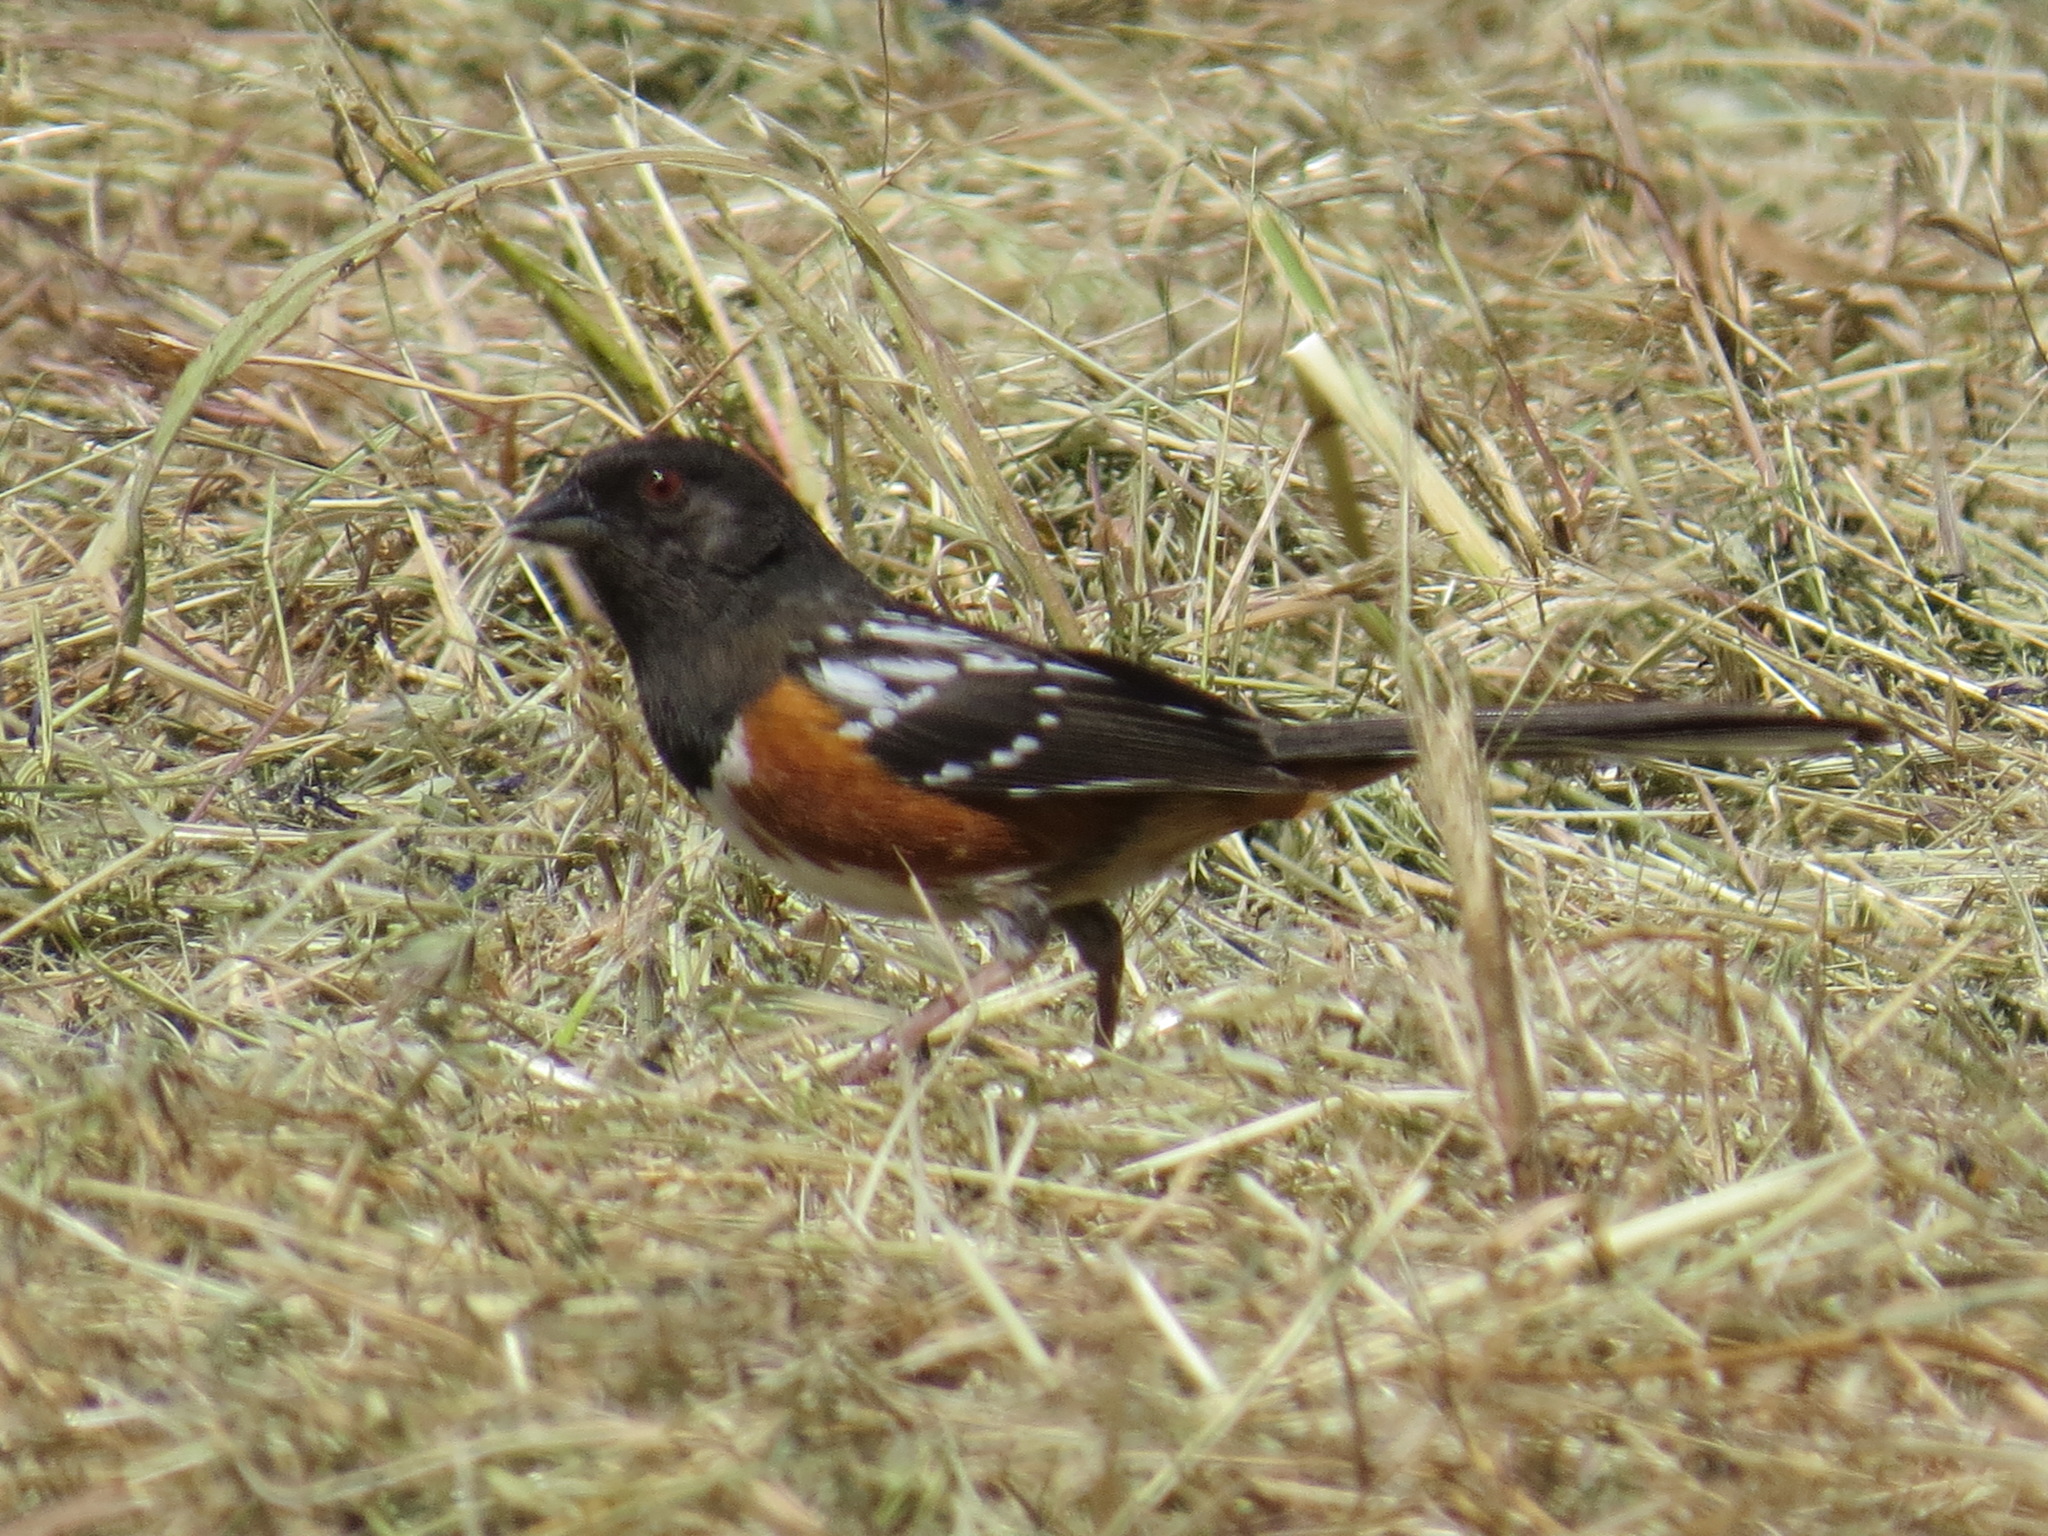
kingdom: Animalia
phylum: Chordata
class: Aves
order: Passeriformes
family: Passerellidae
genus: Pipilo
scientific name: Pipilo maculatus
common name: Spotted towhee
